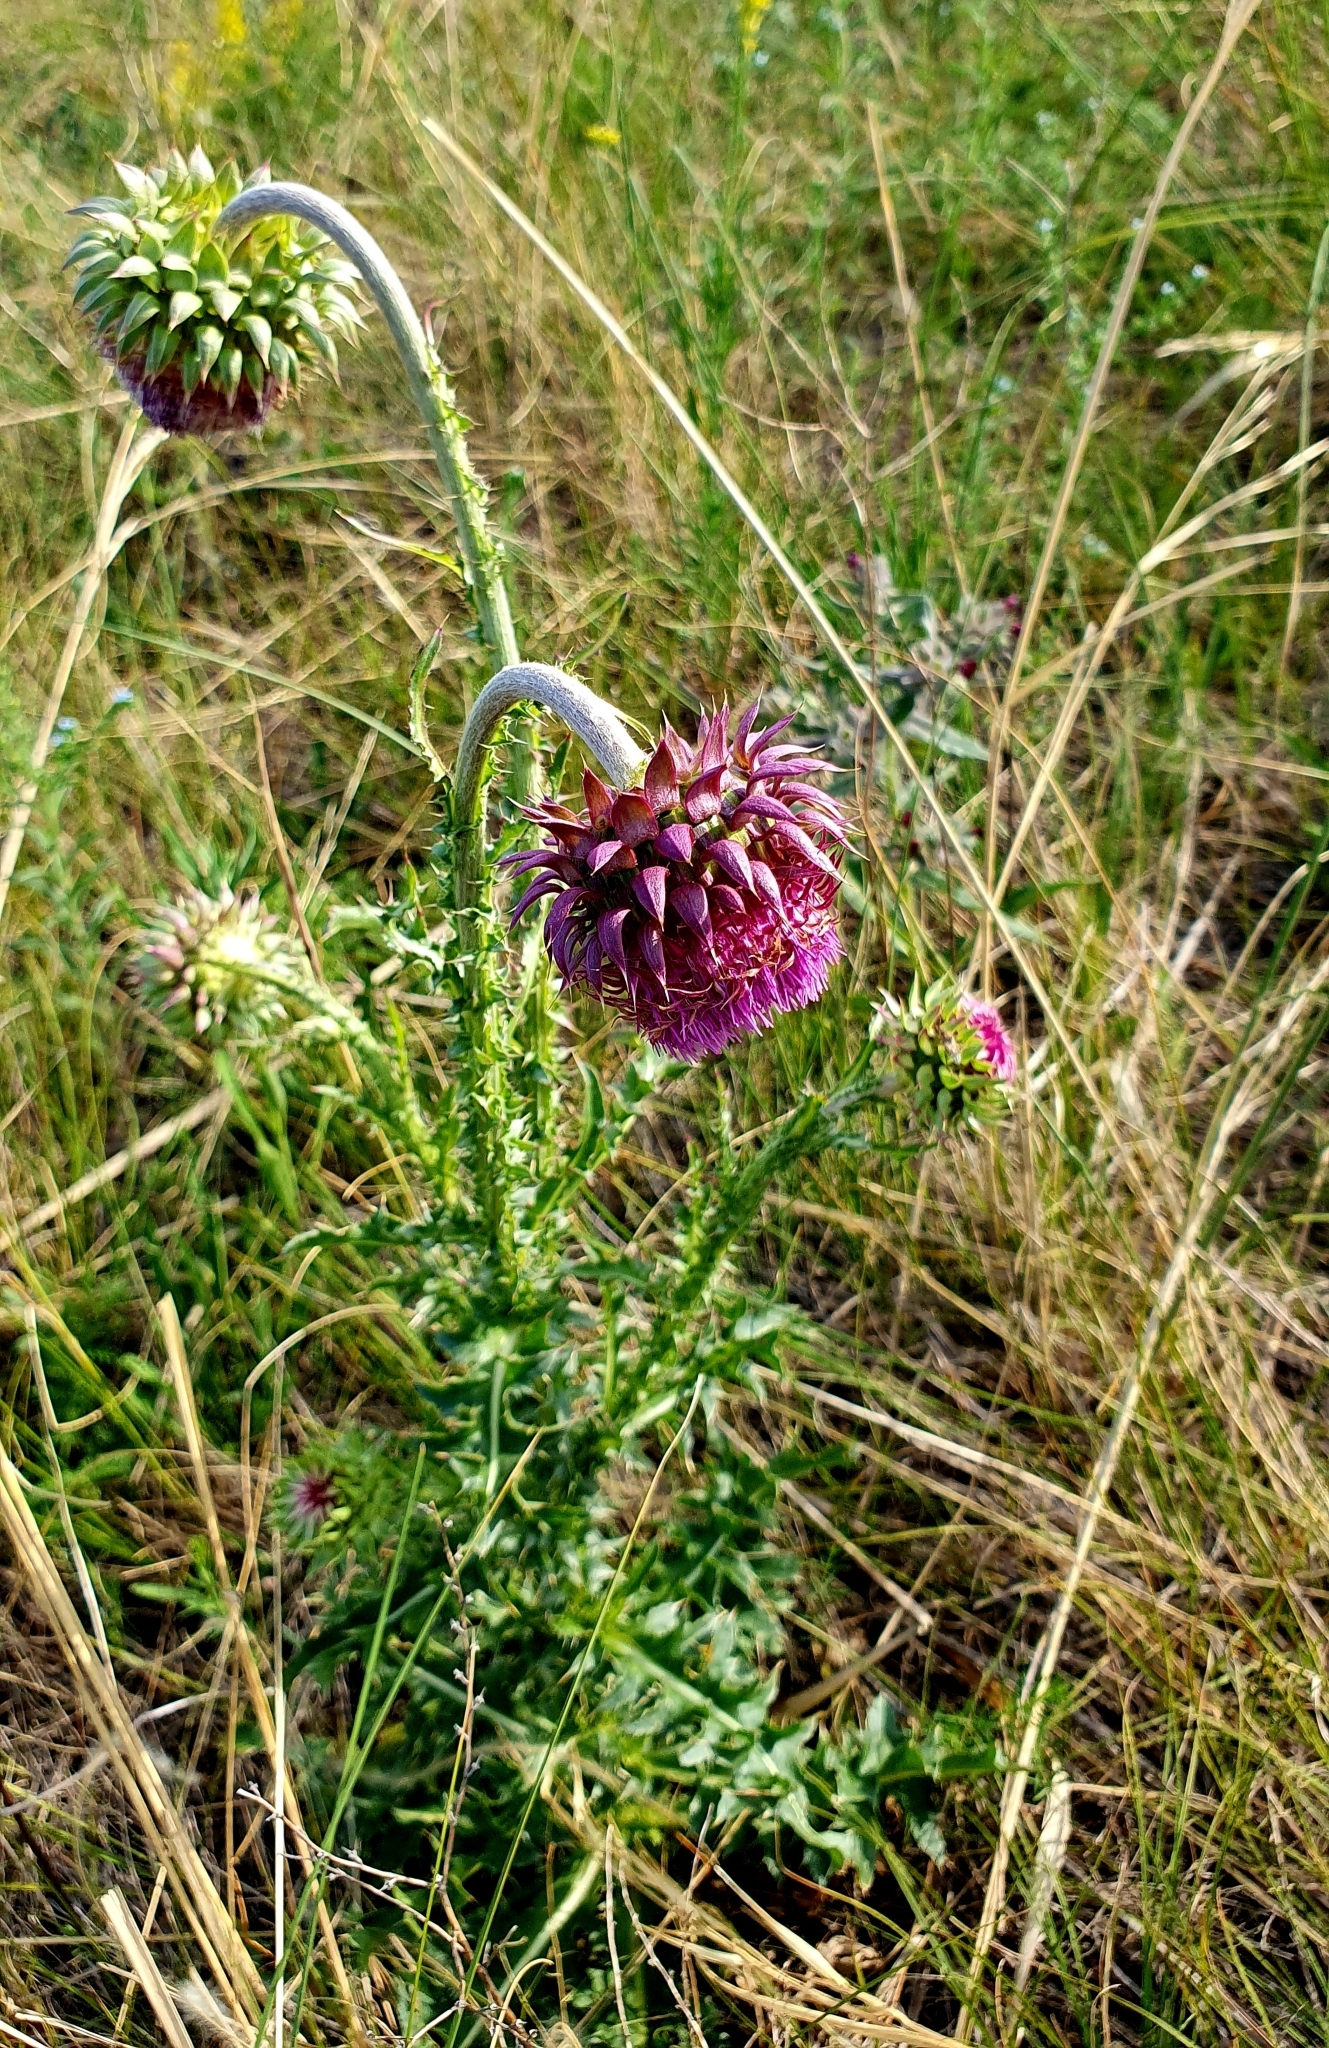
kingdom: Plantae
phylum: Tracheophyta
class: Magnoliopsida
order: Asterales
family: Asteraceae
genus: Carduus
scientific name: Carduus nutans
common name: Musk thistle
